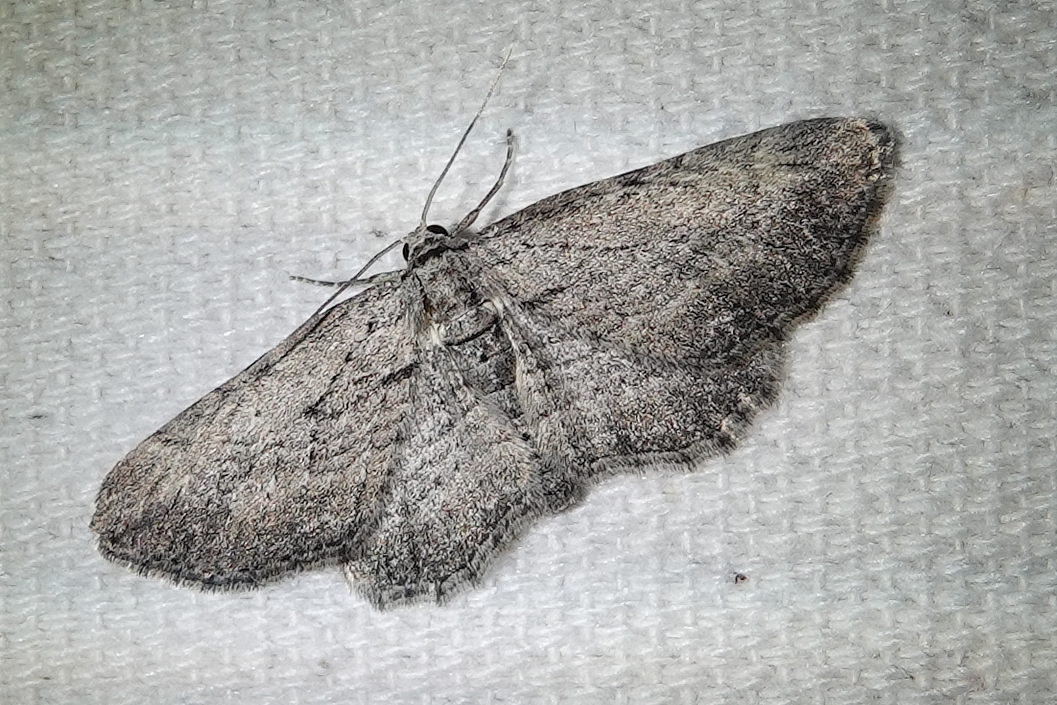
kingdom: Animalia
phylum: Arthropoda
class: Insecta
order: Lepidoptera
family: Geometridae
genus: Horisme
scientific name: Horisme intestinata
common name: Brown bark carpet
